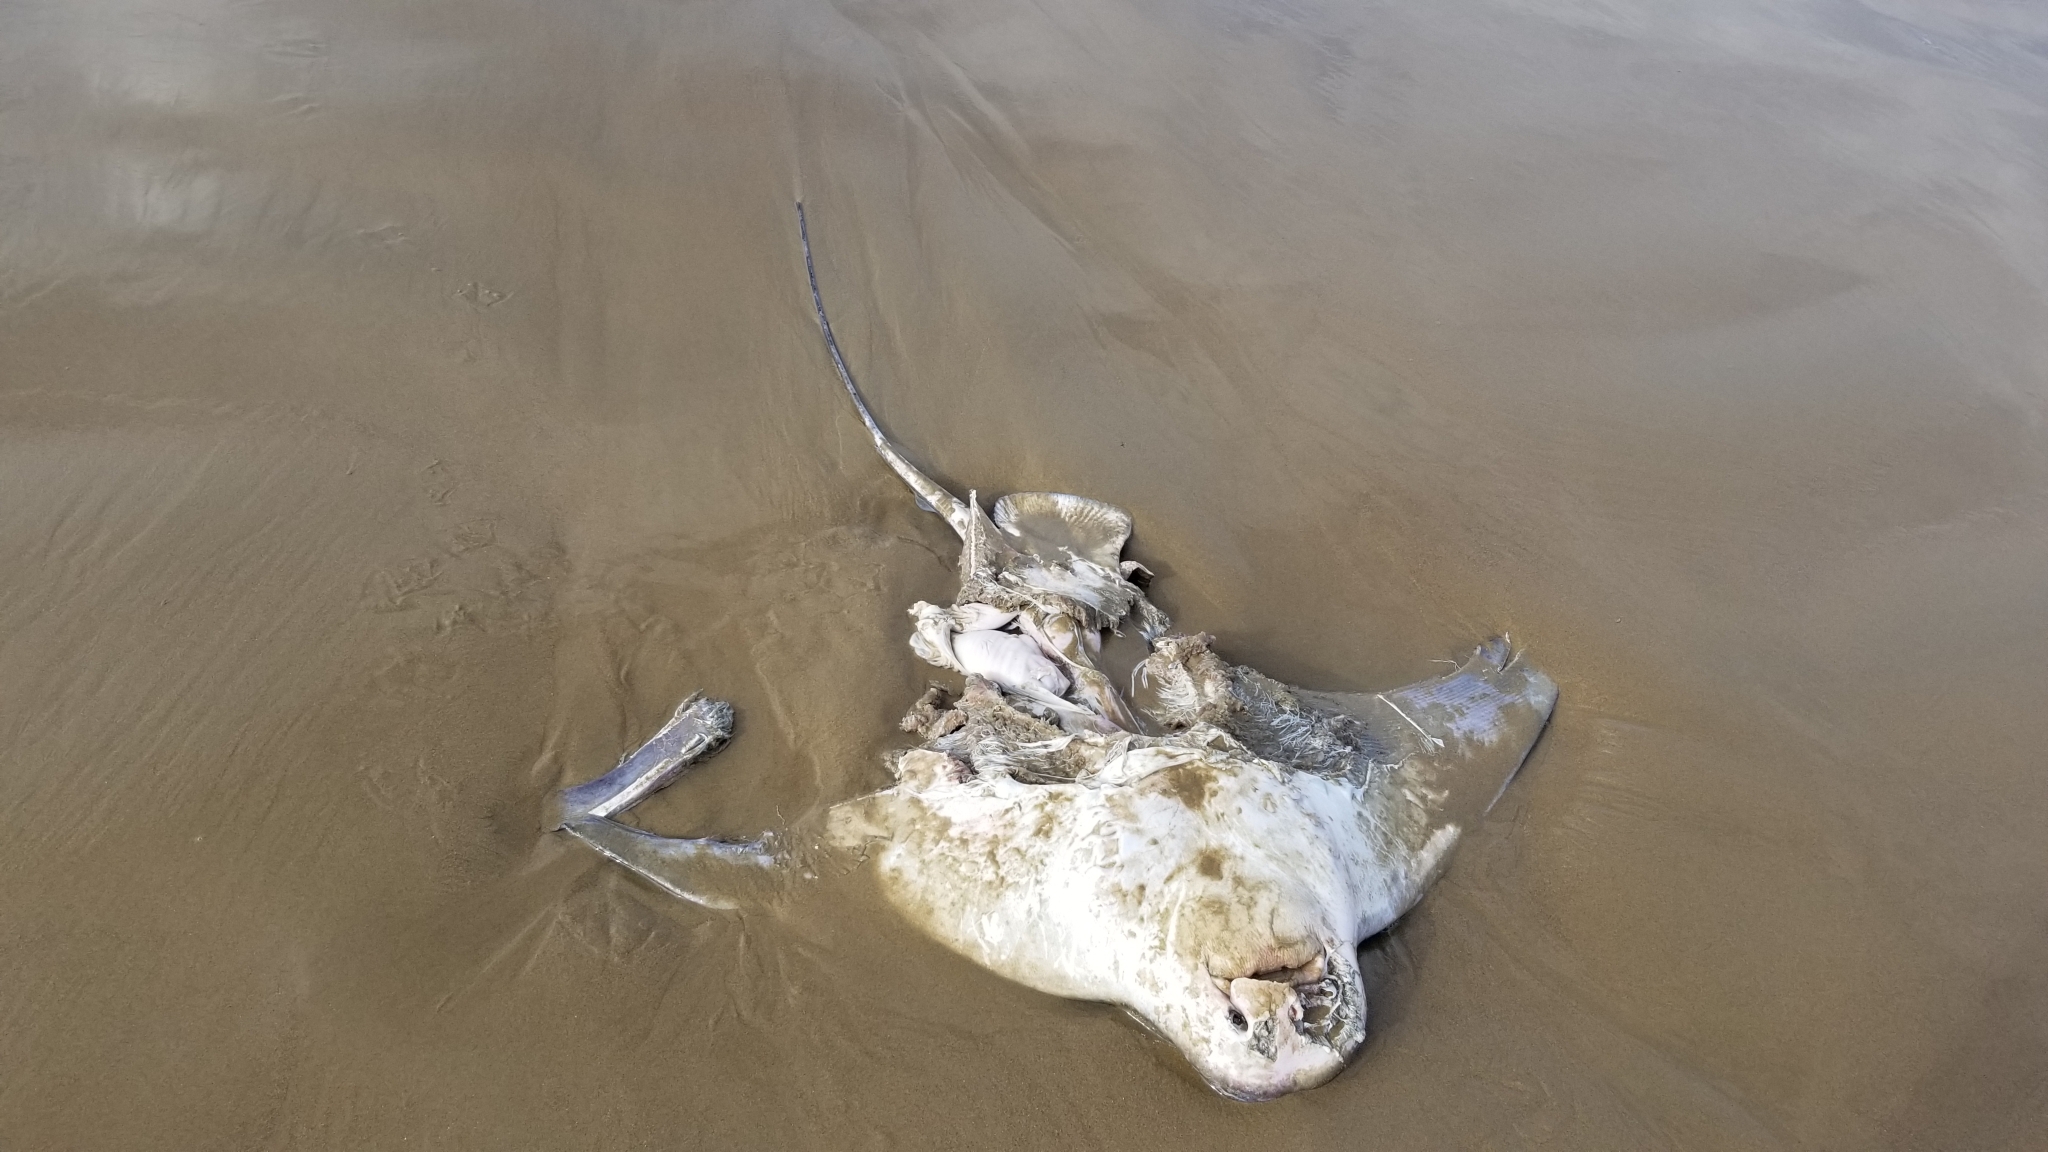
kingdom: Animalia
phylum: Chordata
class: Elasmobranchii
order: Myliobatiformes
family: Myliobatidae
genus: Myliobatis
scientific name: Myliobatis californica
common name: Bat ray
